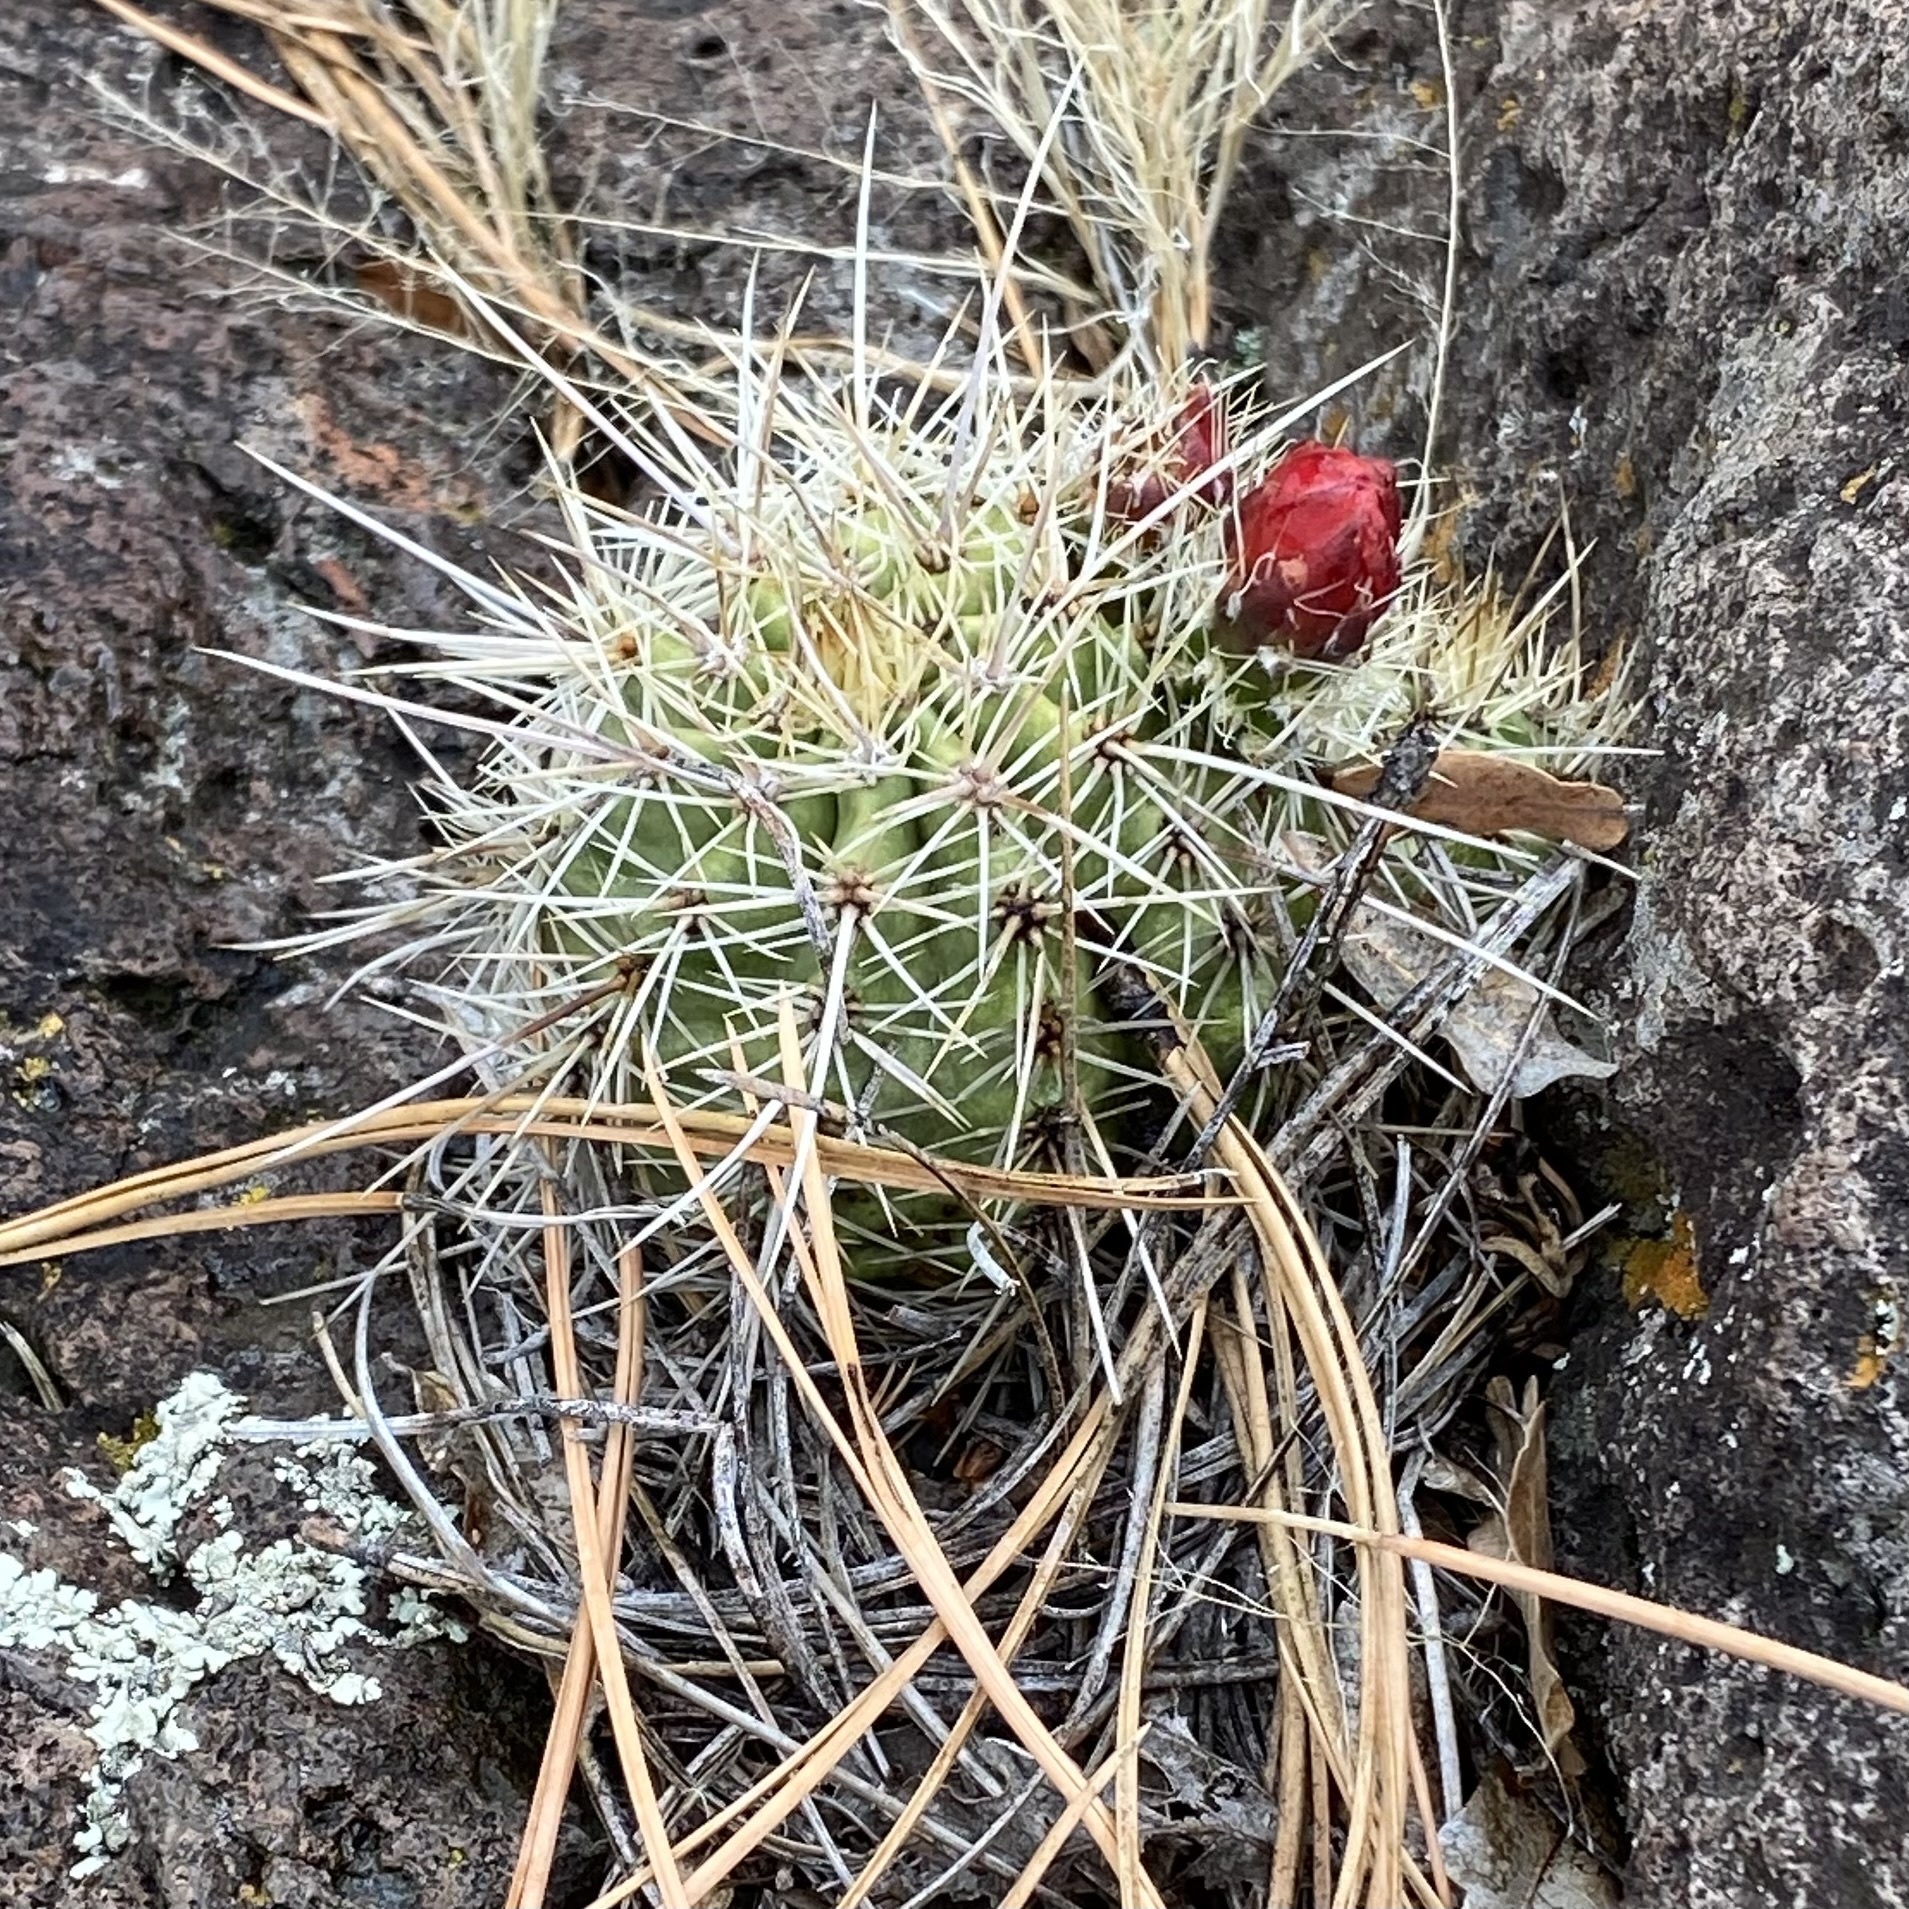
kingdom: Plantae
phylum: Tracheophyta
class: Magnoliopsida
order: Caryophyllales
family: Cactaceae
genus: Echinocereus
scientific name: Echinocereus coccineus
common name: Scarlet hedgehog cactus
